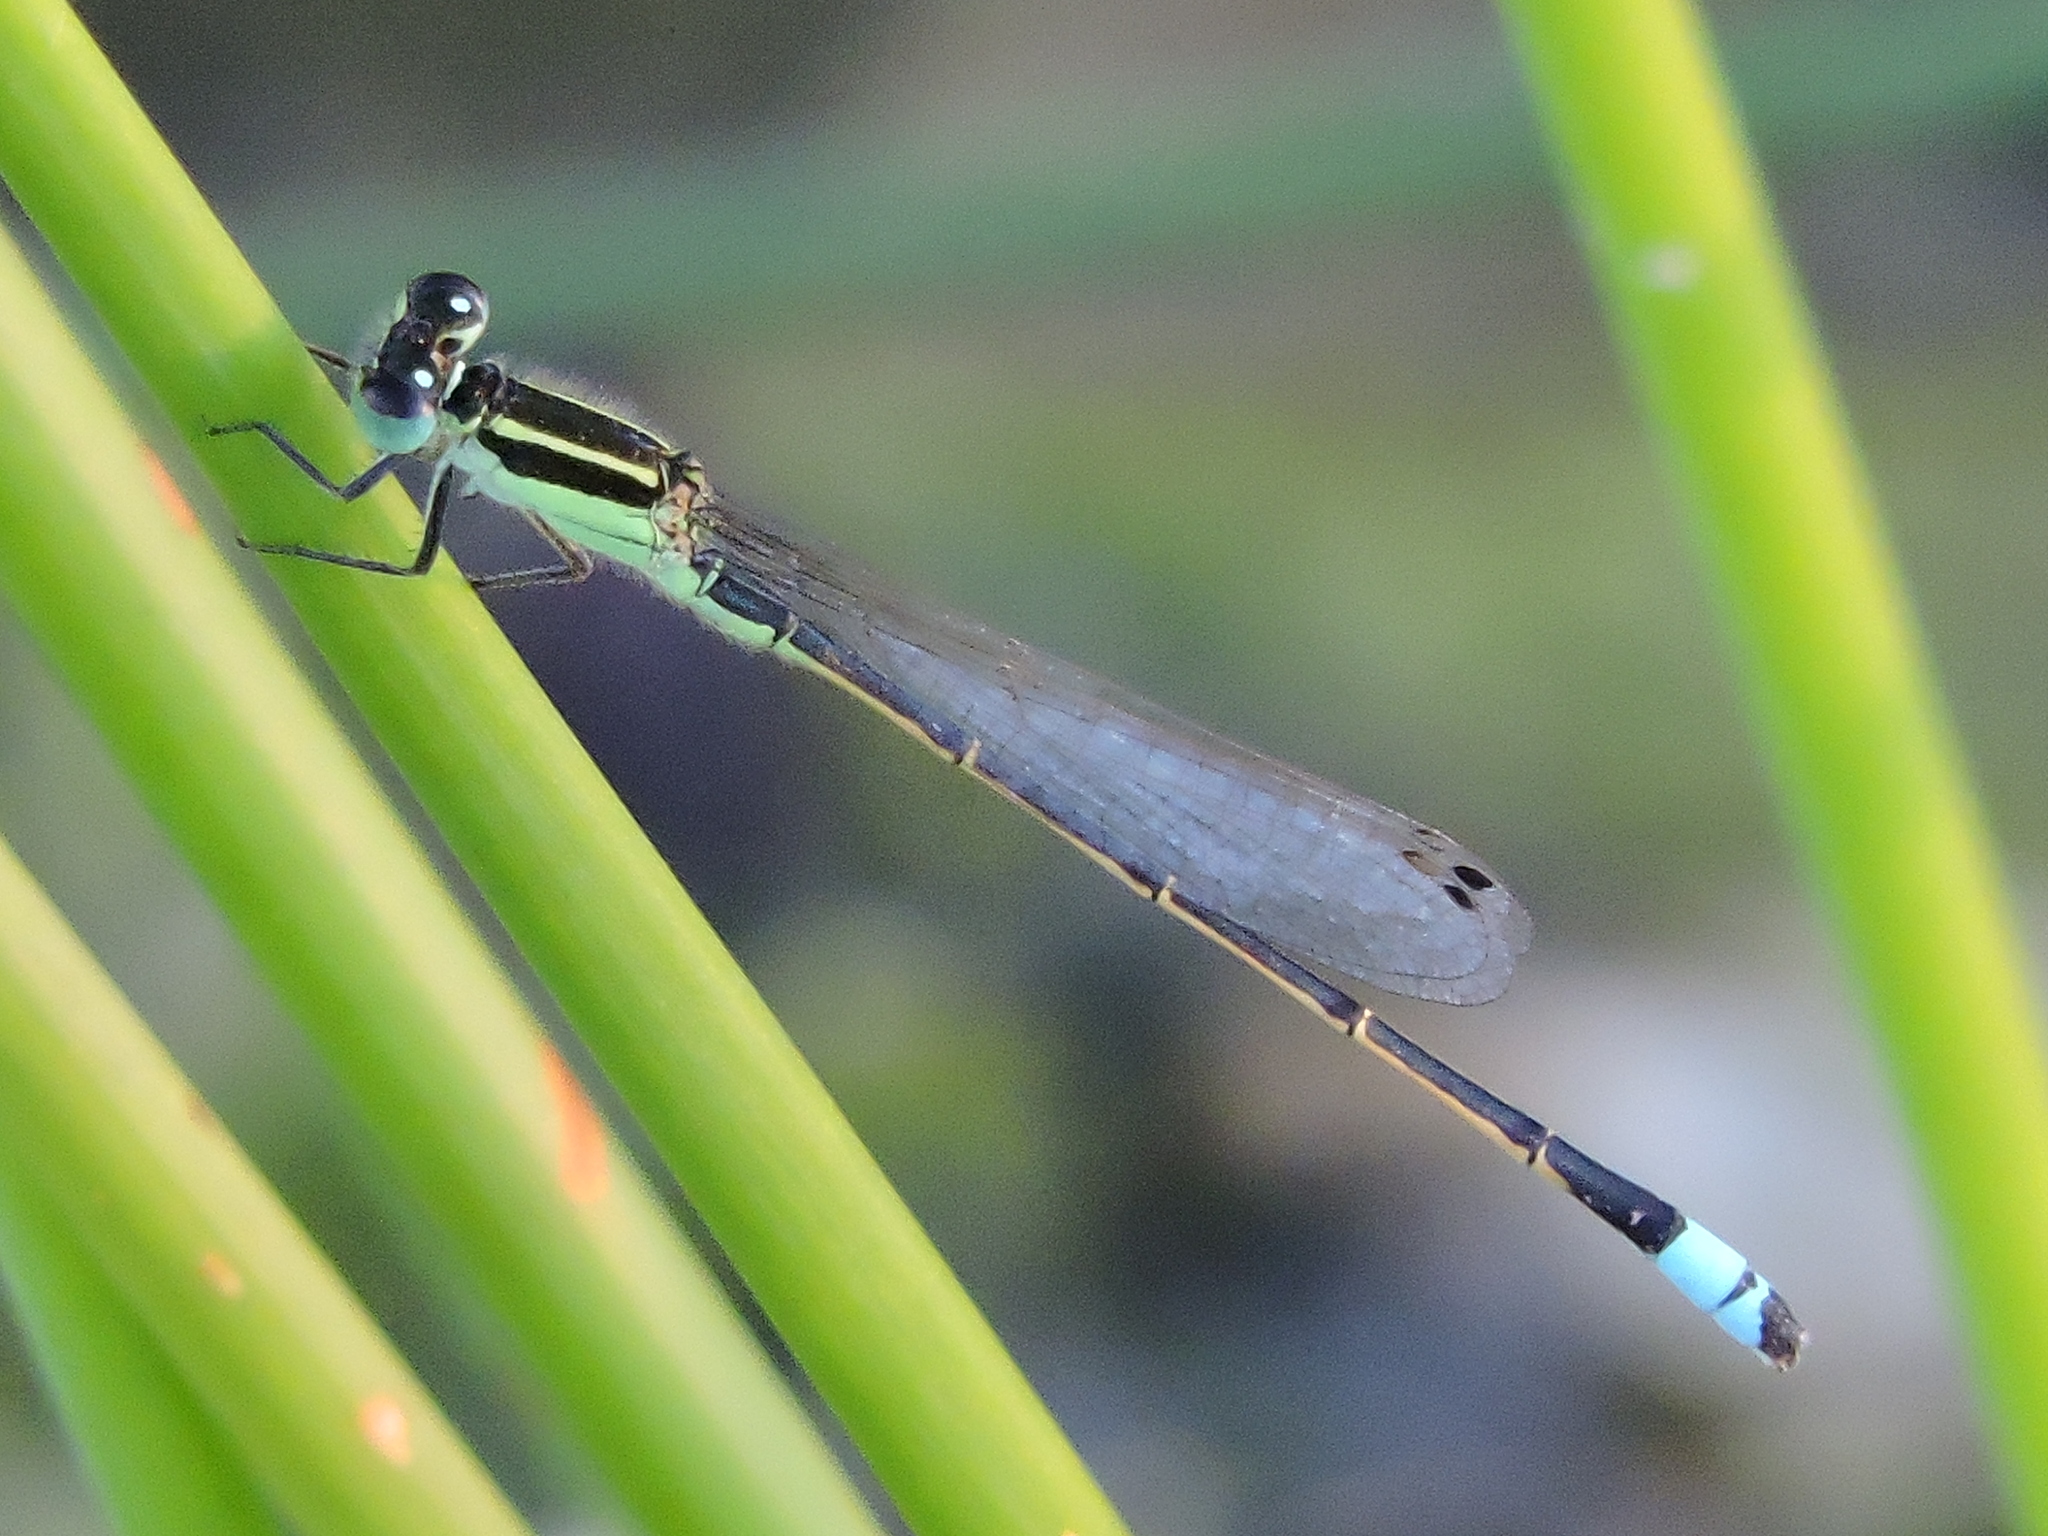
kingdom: Animalia
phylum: Arthropoda
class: Insecta
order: Odonata
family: Coenagrionidae
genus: Ischnura
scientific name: Ischnura ramburii
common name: Rambur's forktail
